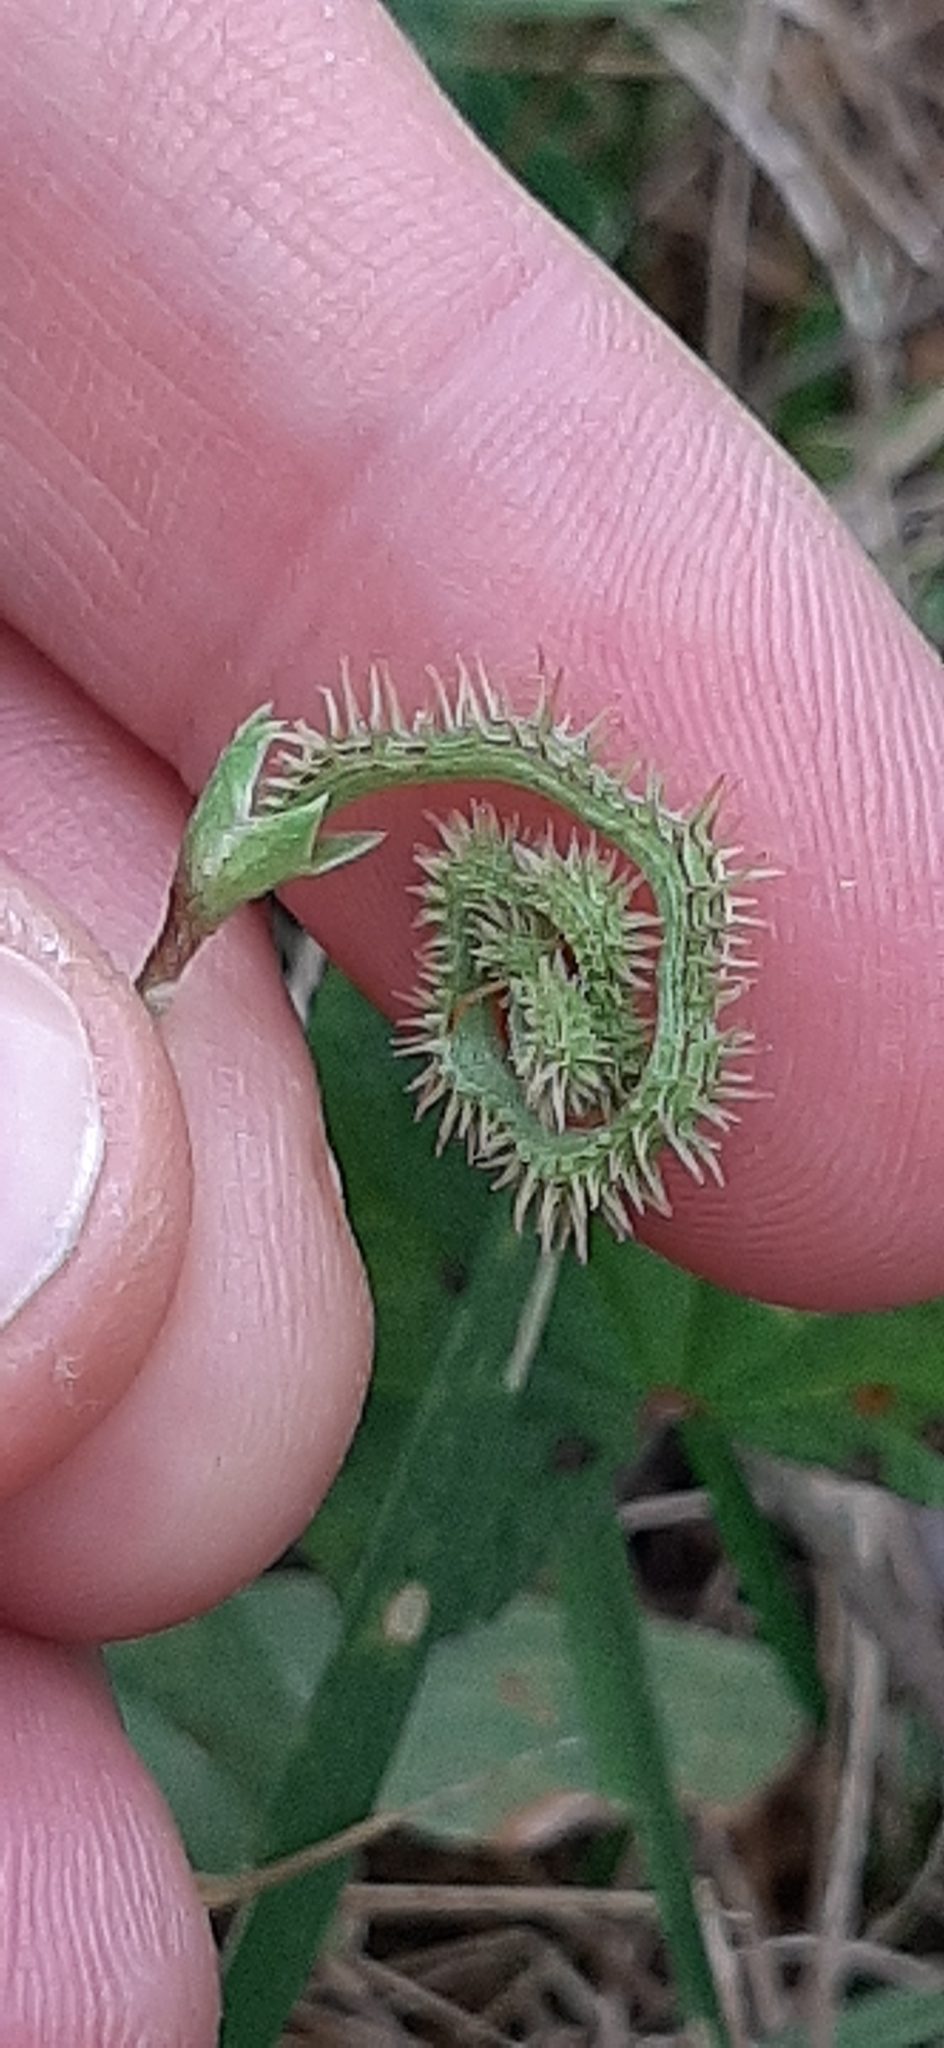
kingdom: Plantae
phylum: Tracheophyta
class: Magnoliopsida
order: Fabales
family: Fabaceae
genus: Scorpiurus
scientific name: Scorpiurus muricatus
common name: Caterpillar-plant
